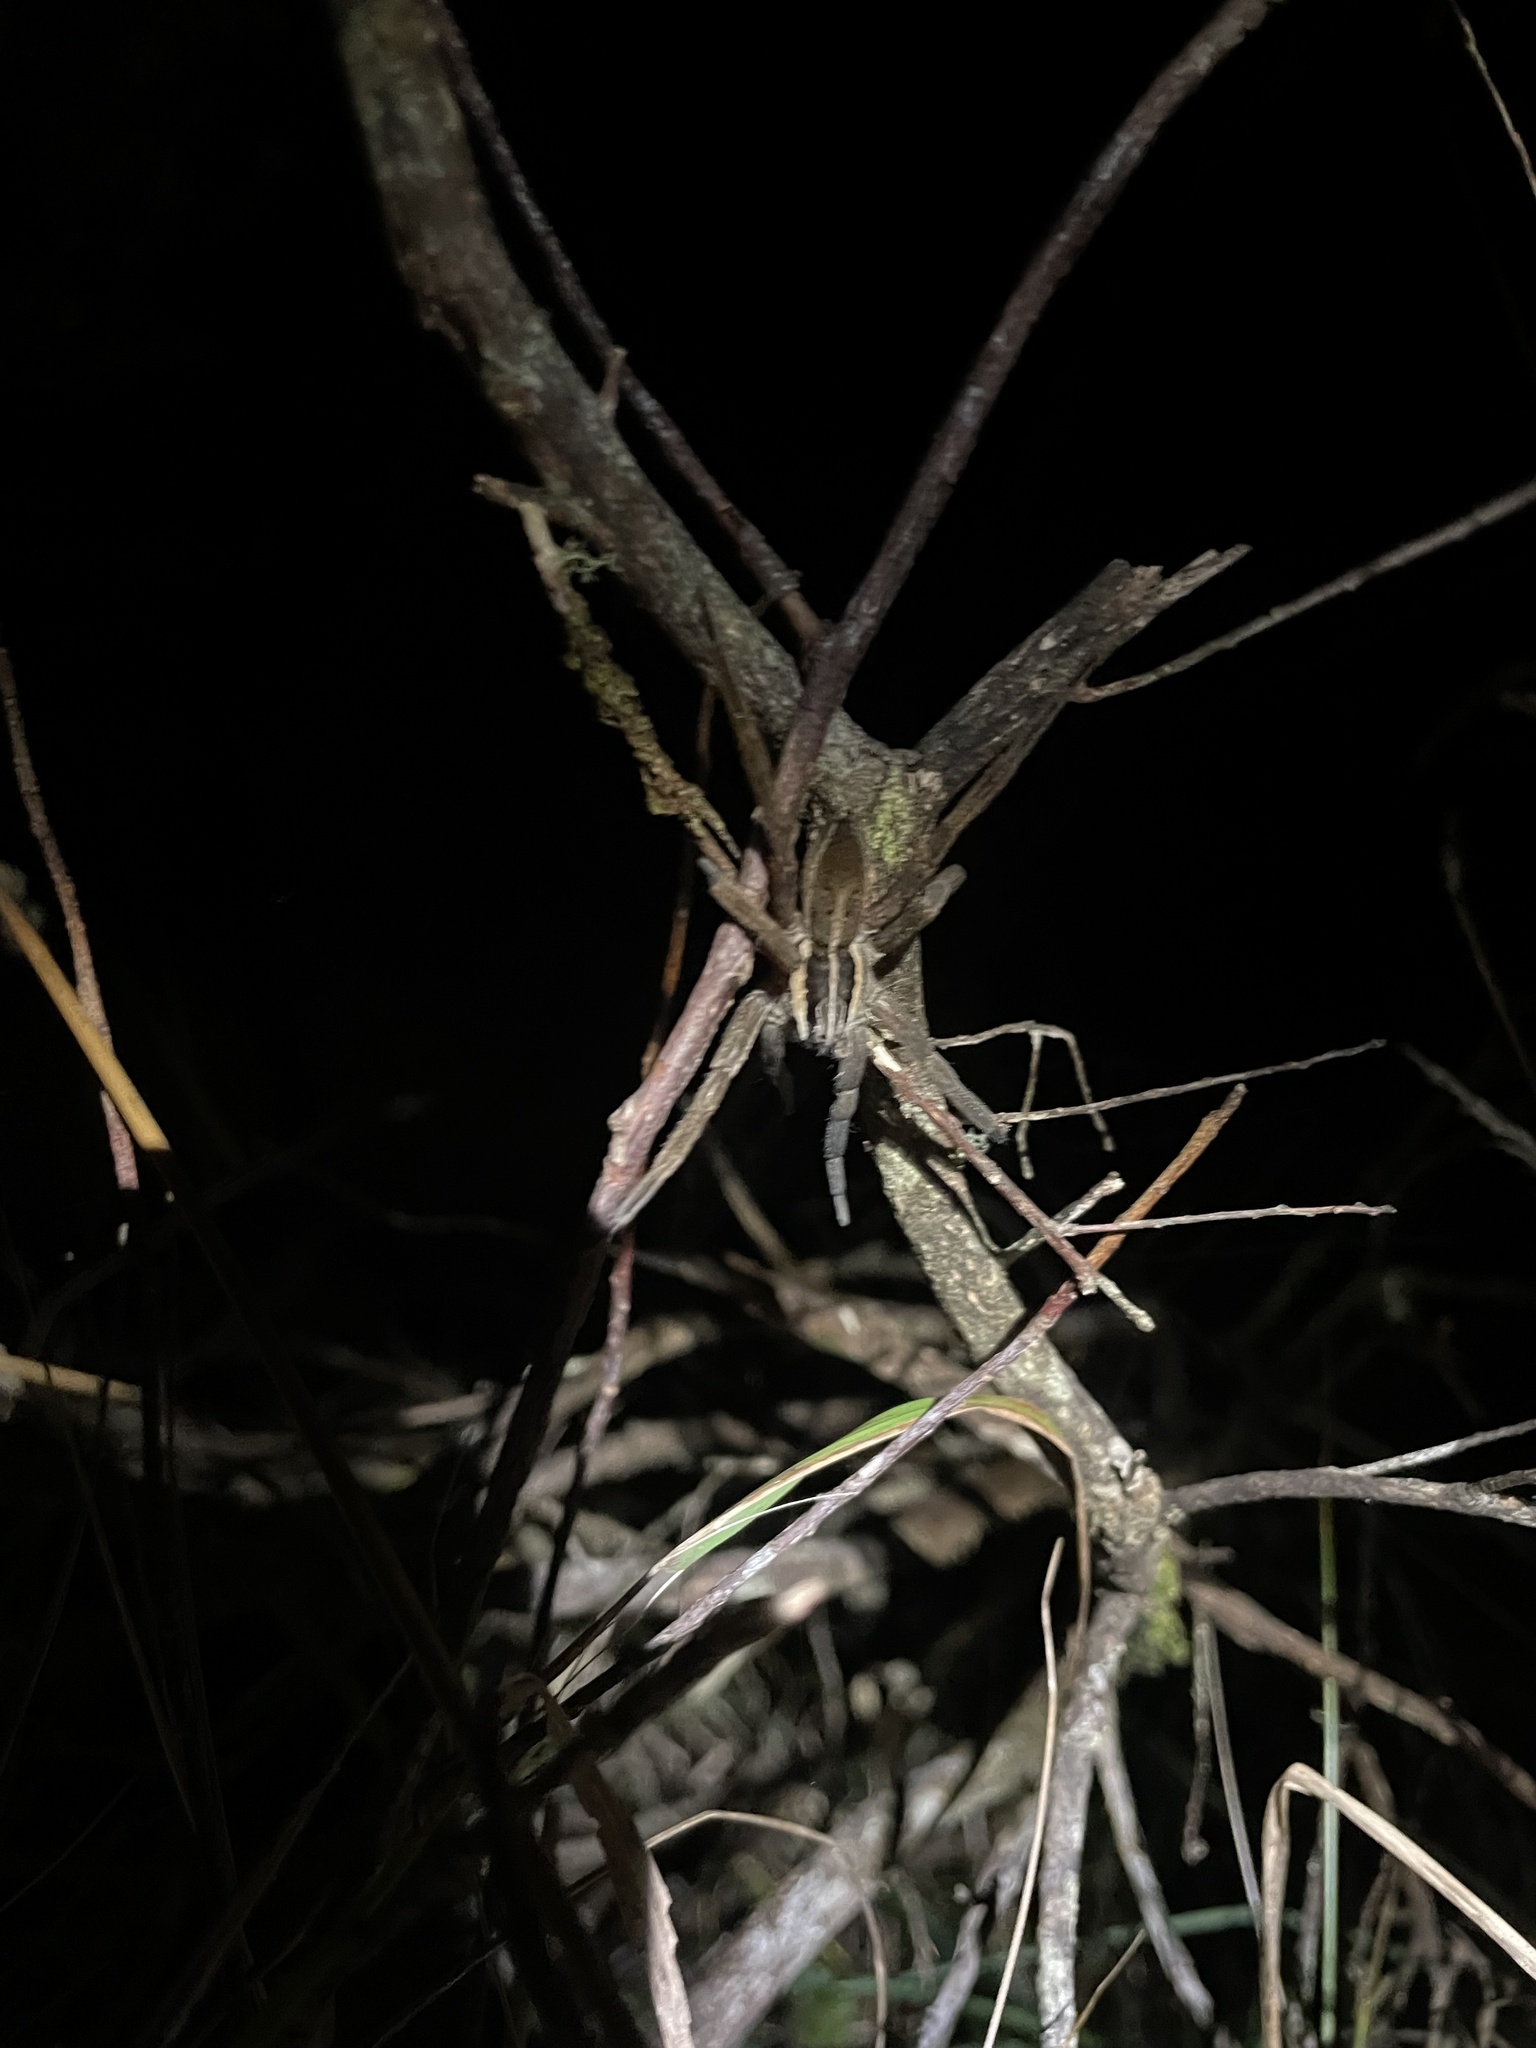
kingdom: Animalia
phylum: Arthropoda
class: Arachnida
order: Araneae
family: Pisauridae
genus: Dolomedes
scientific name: Dolomedes minor
